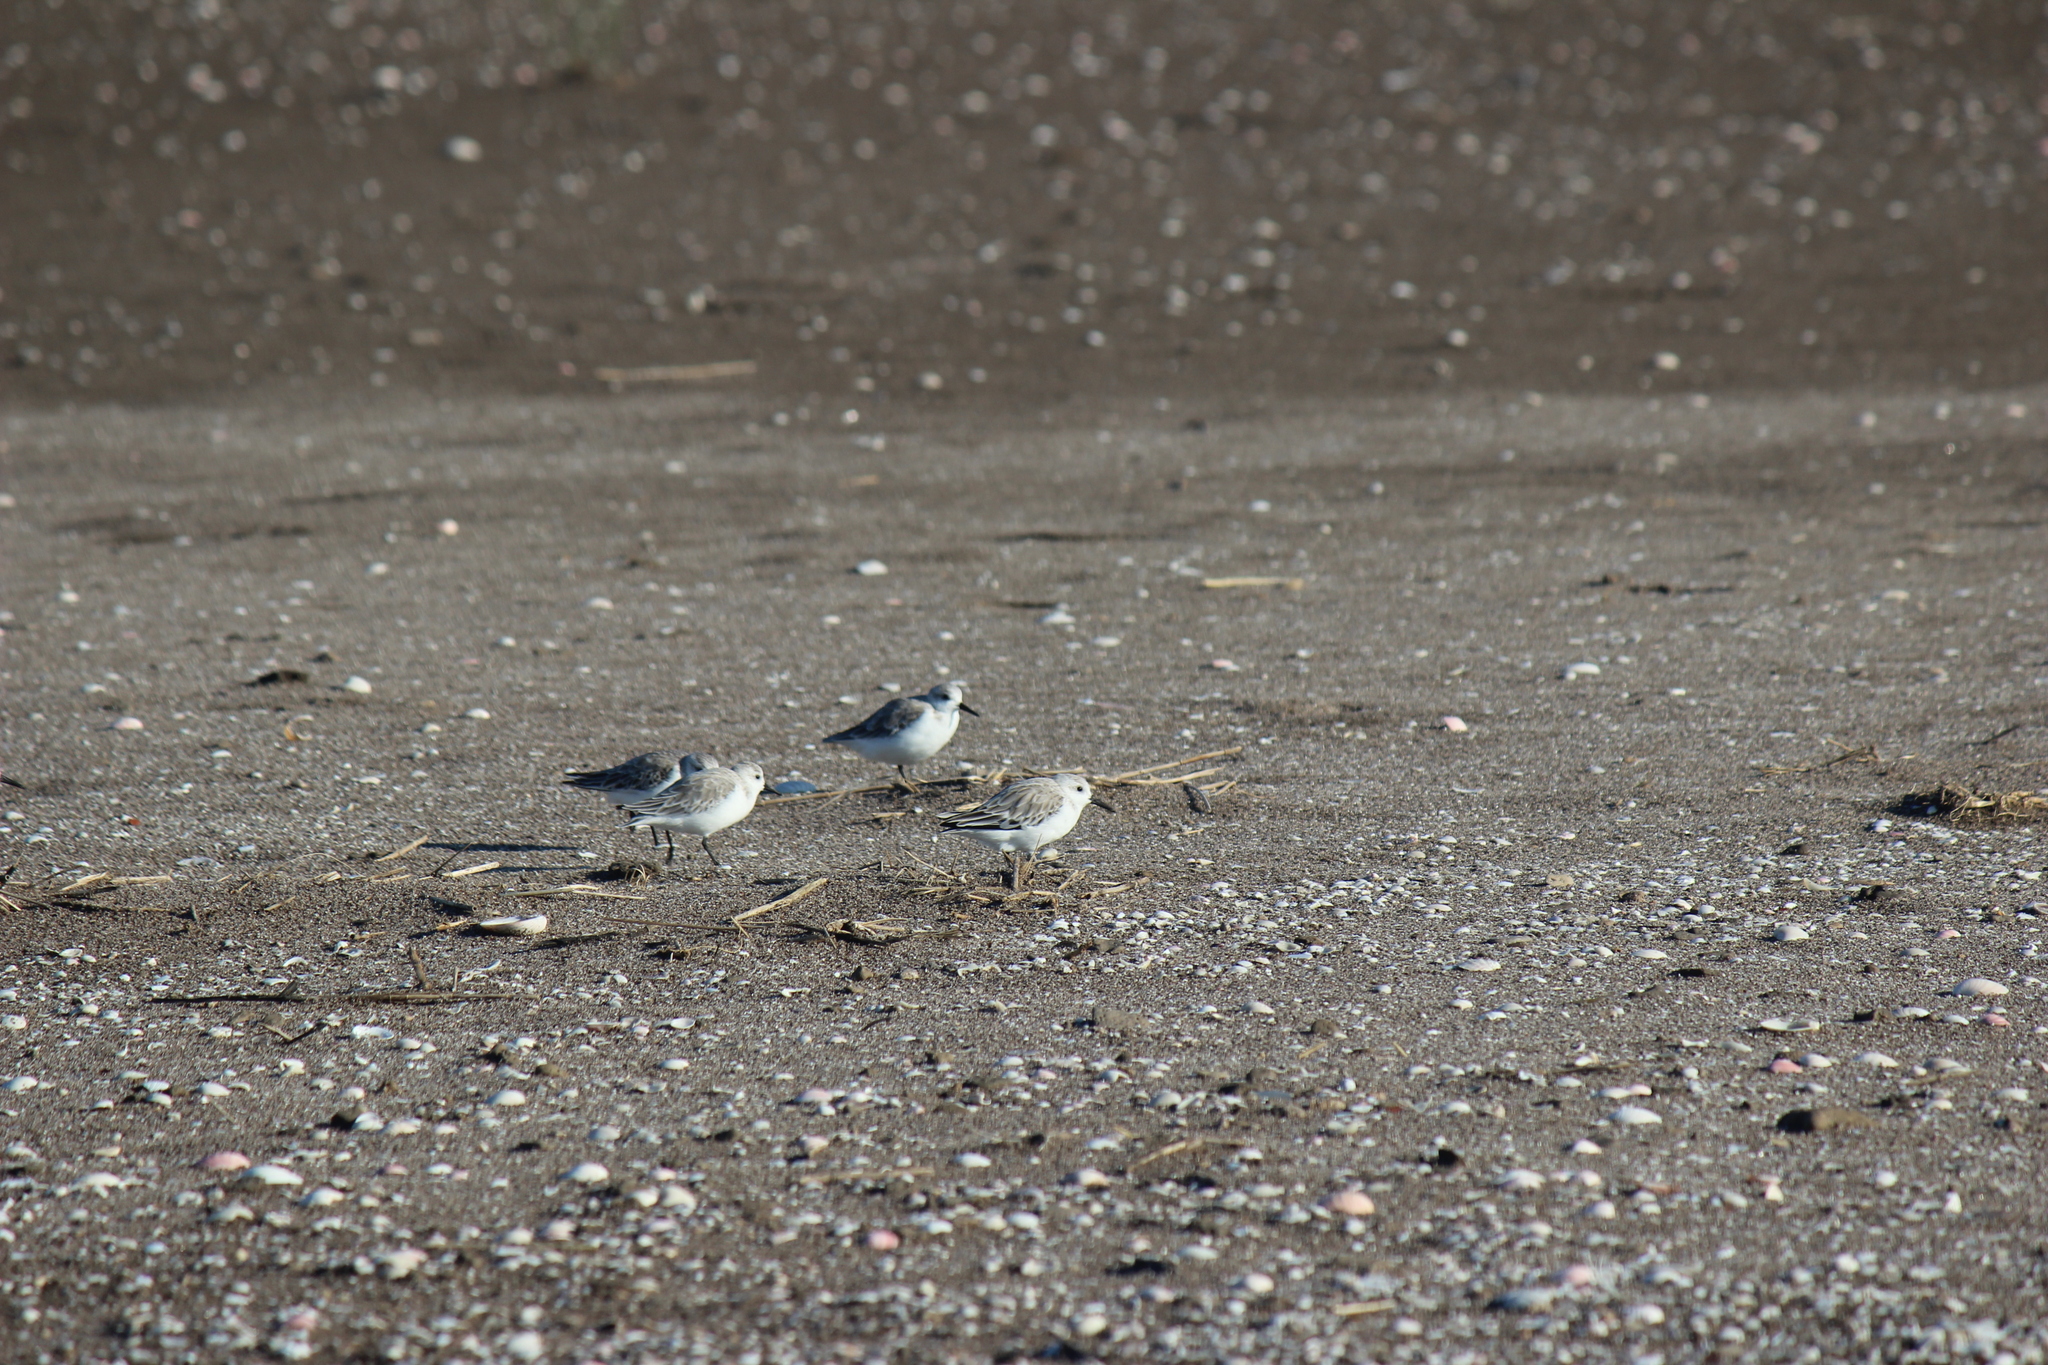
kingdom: Animalia
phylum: Chordata
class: Aves
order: Charadriiformes
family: Scolopacidae
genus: Calidris
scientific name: Calidris alba
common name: Sanderling
